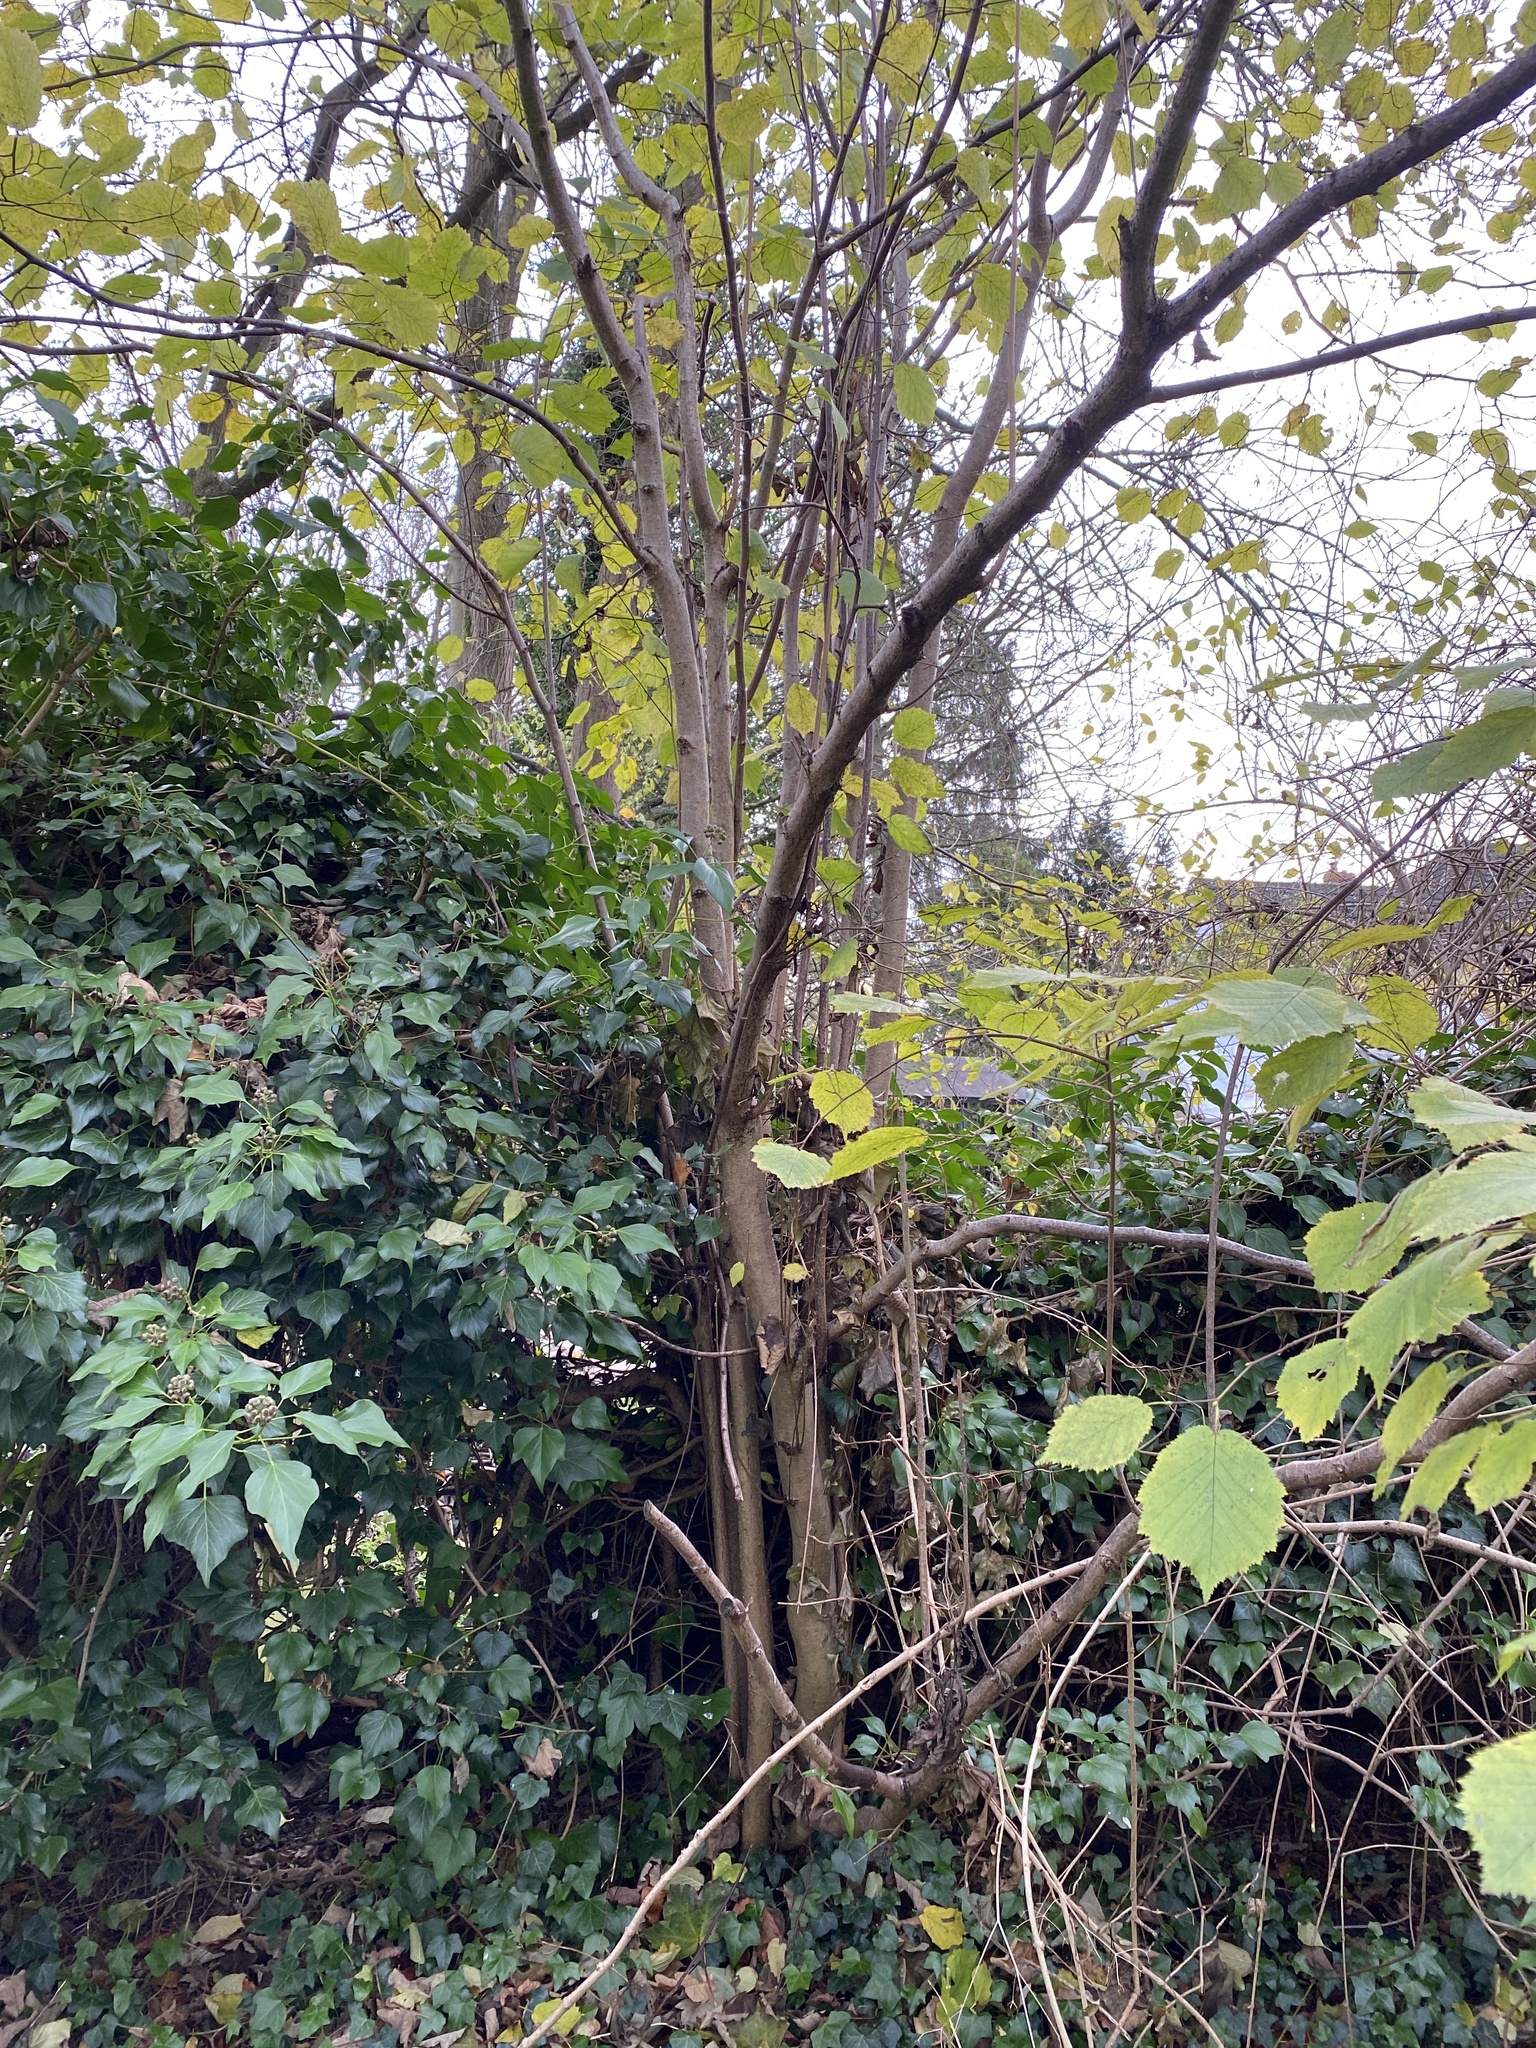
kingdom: Plantae
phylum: Tracheophyta
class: Magnoliopsida
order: Fagales
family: Betulaceae
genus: Corylus
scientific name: Corylus avellana
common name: European hazel
